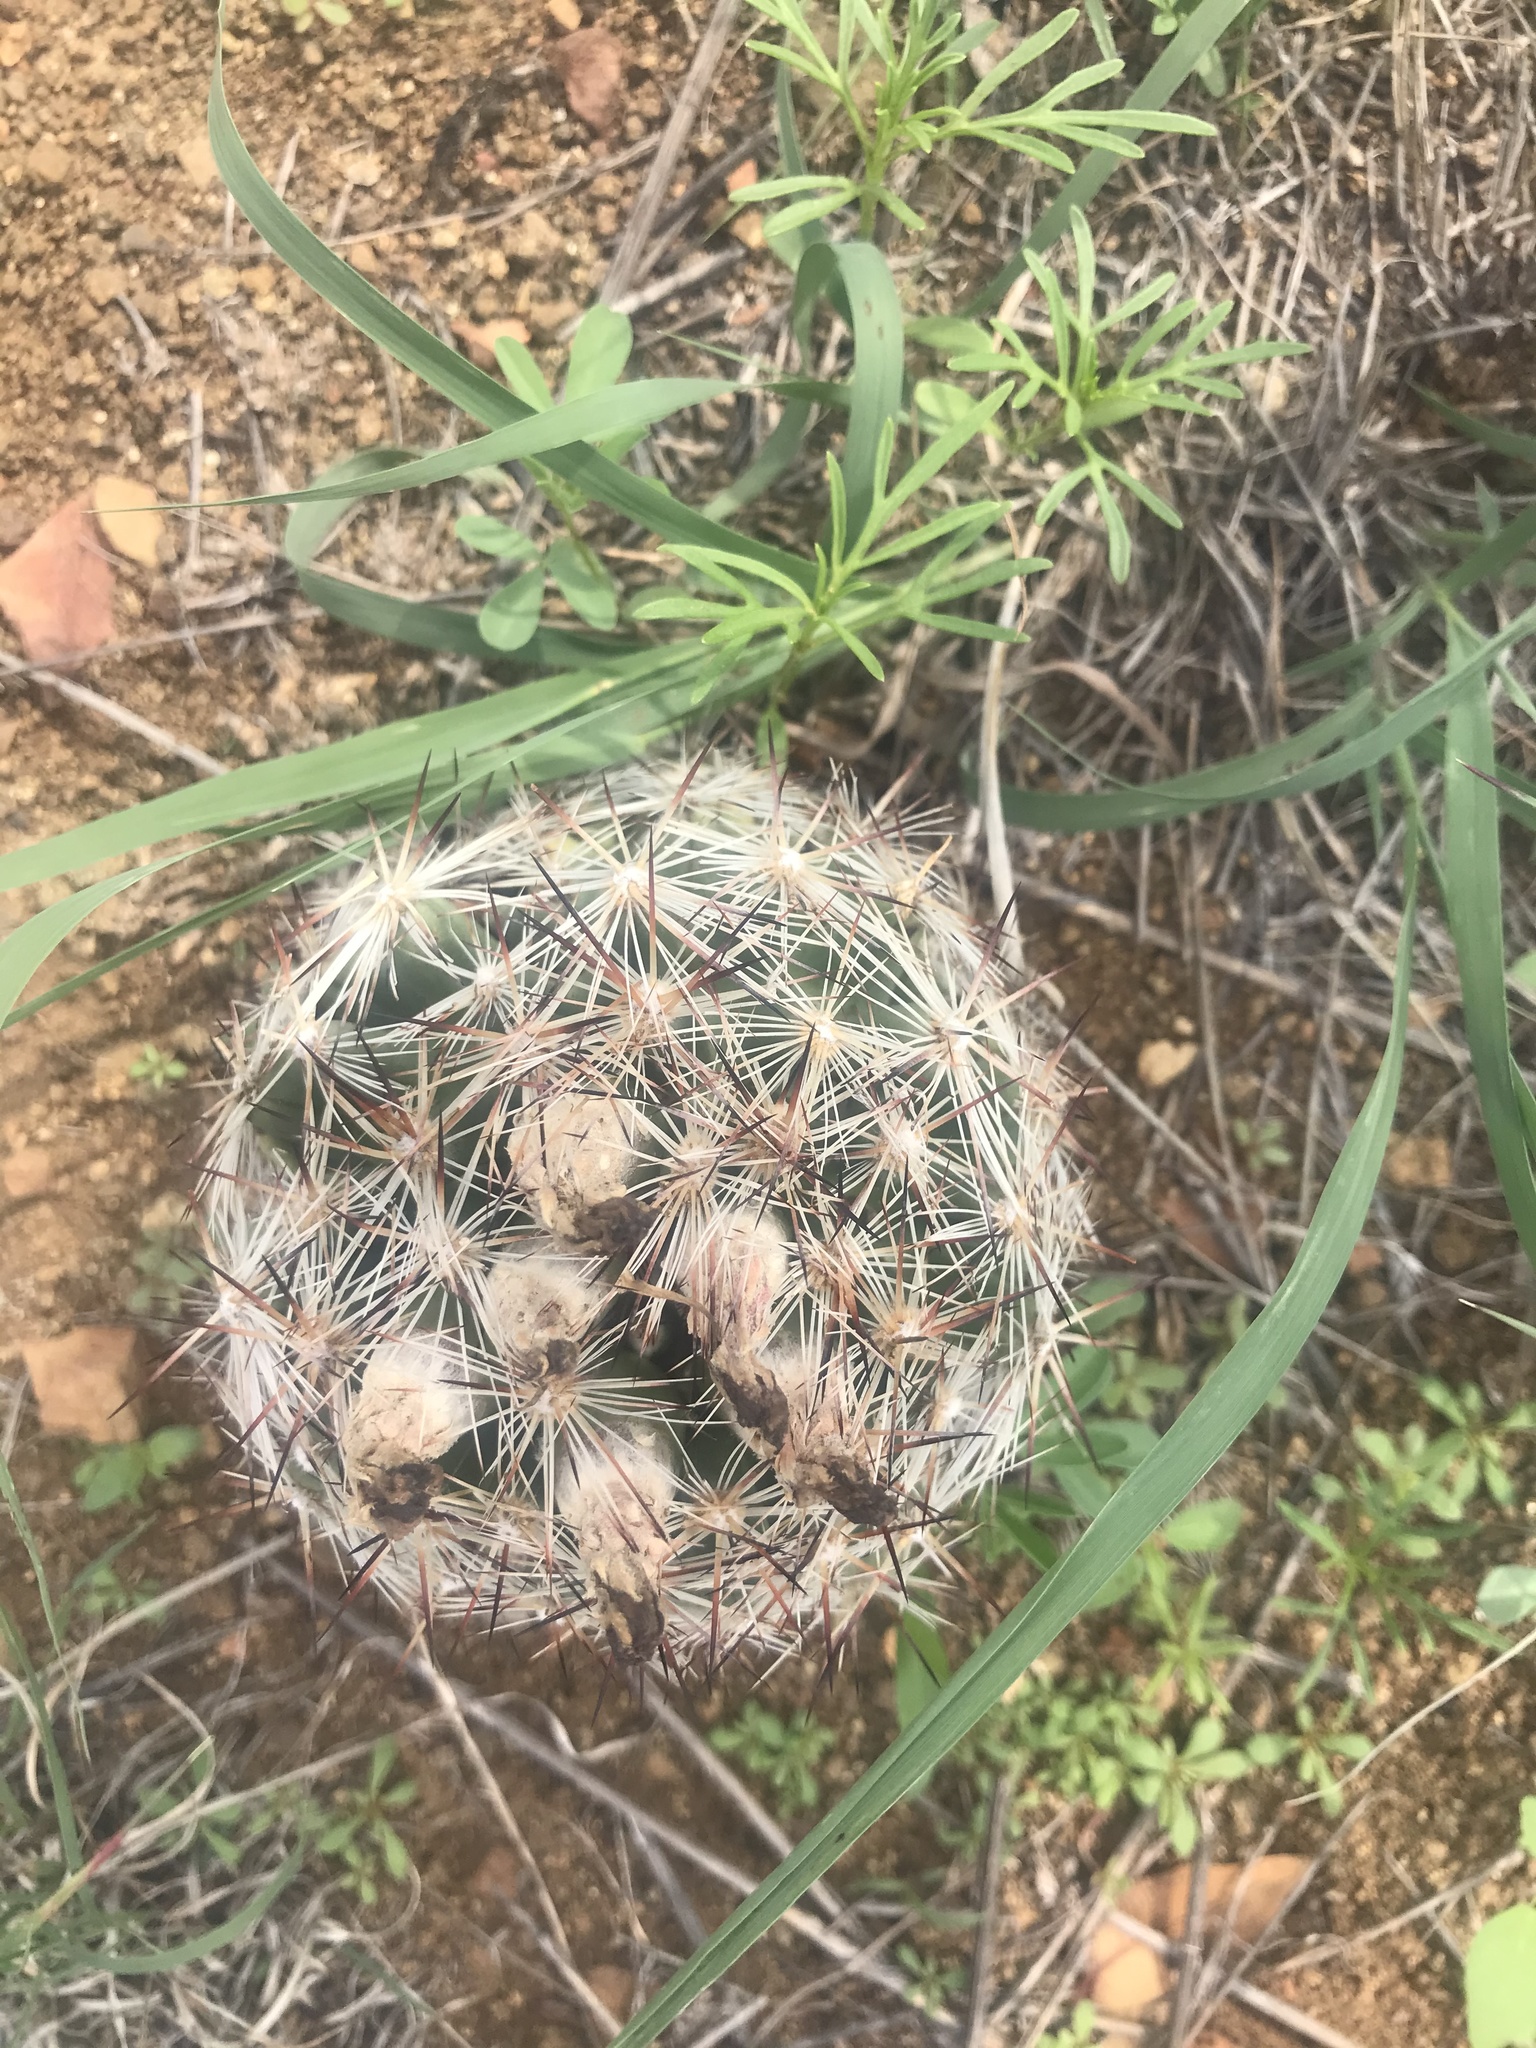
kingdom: Plantae
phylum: Tracheophyta
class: Magnoliopsida
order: Caryophyllales
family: Cactaceae
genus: Pelecyphora
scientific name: Pelecyphora vivipara
